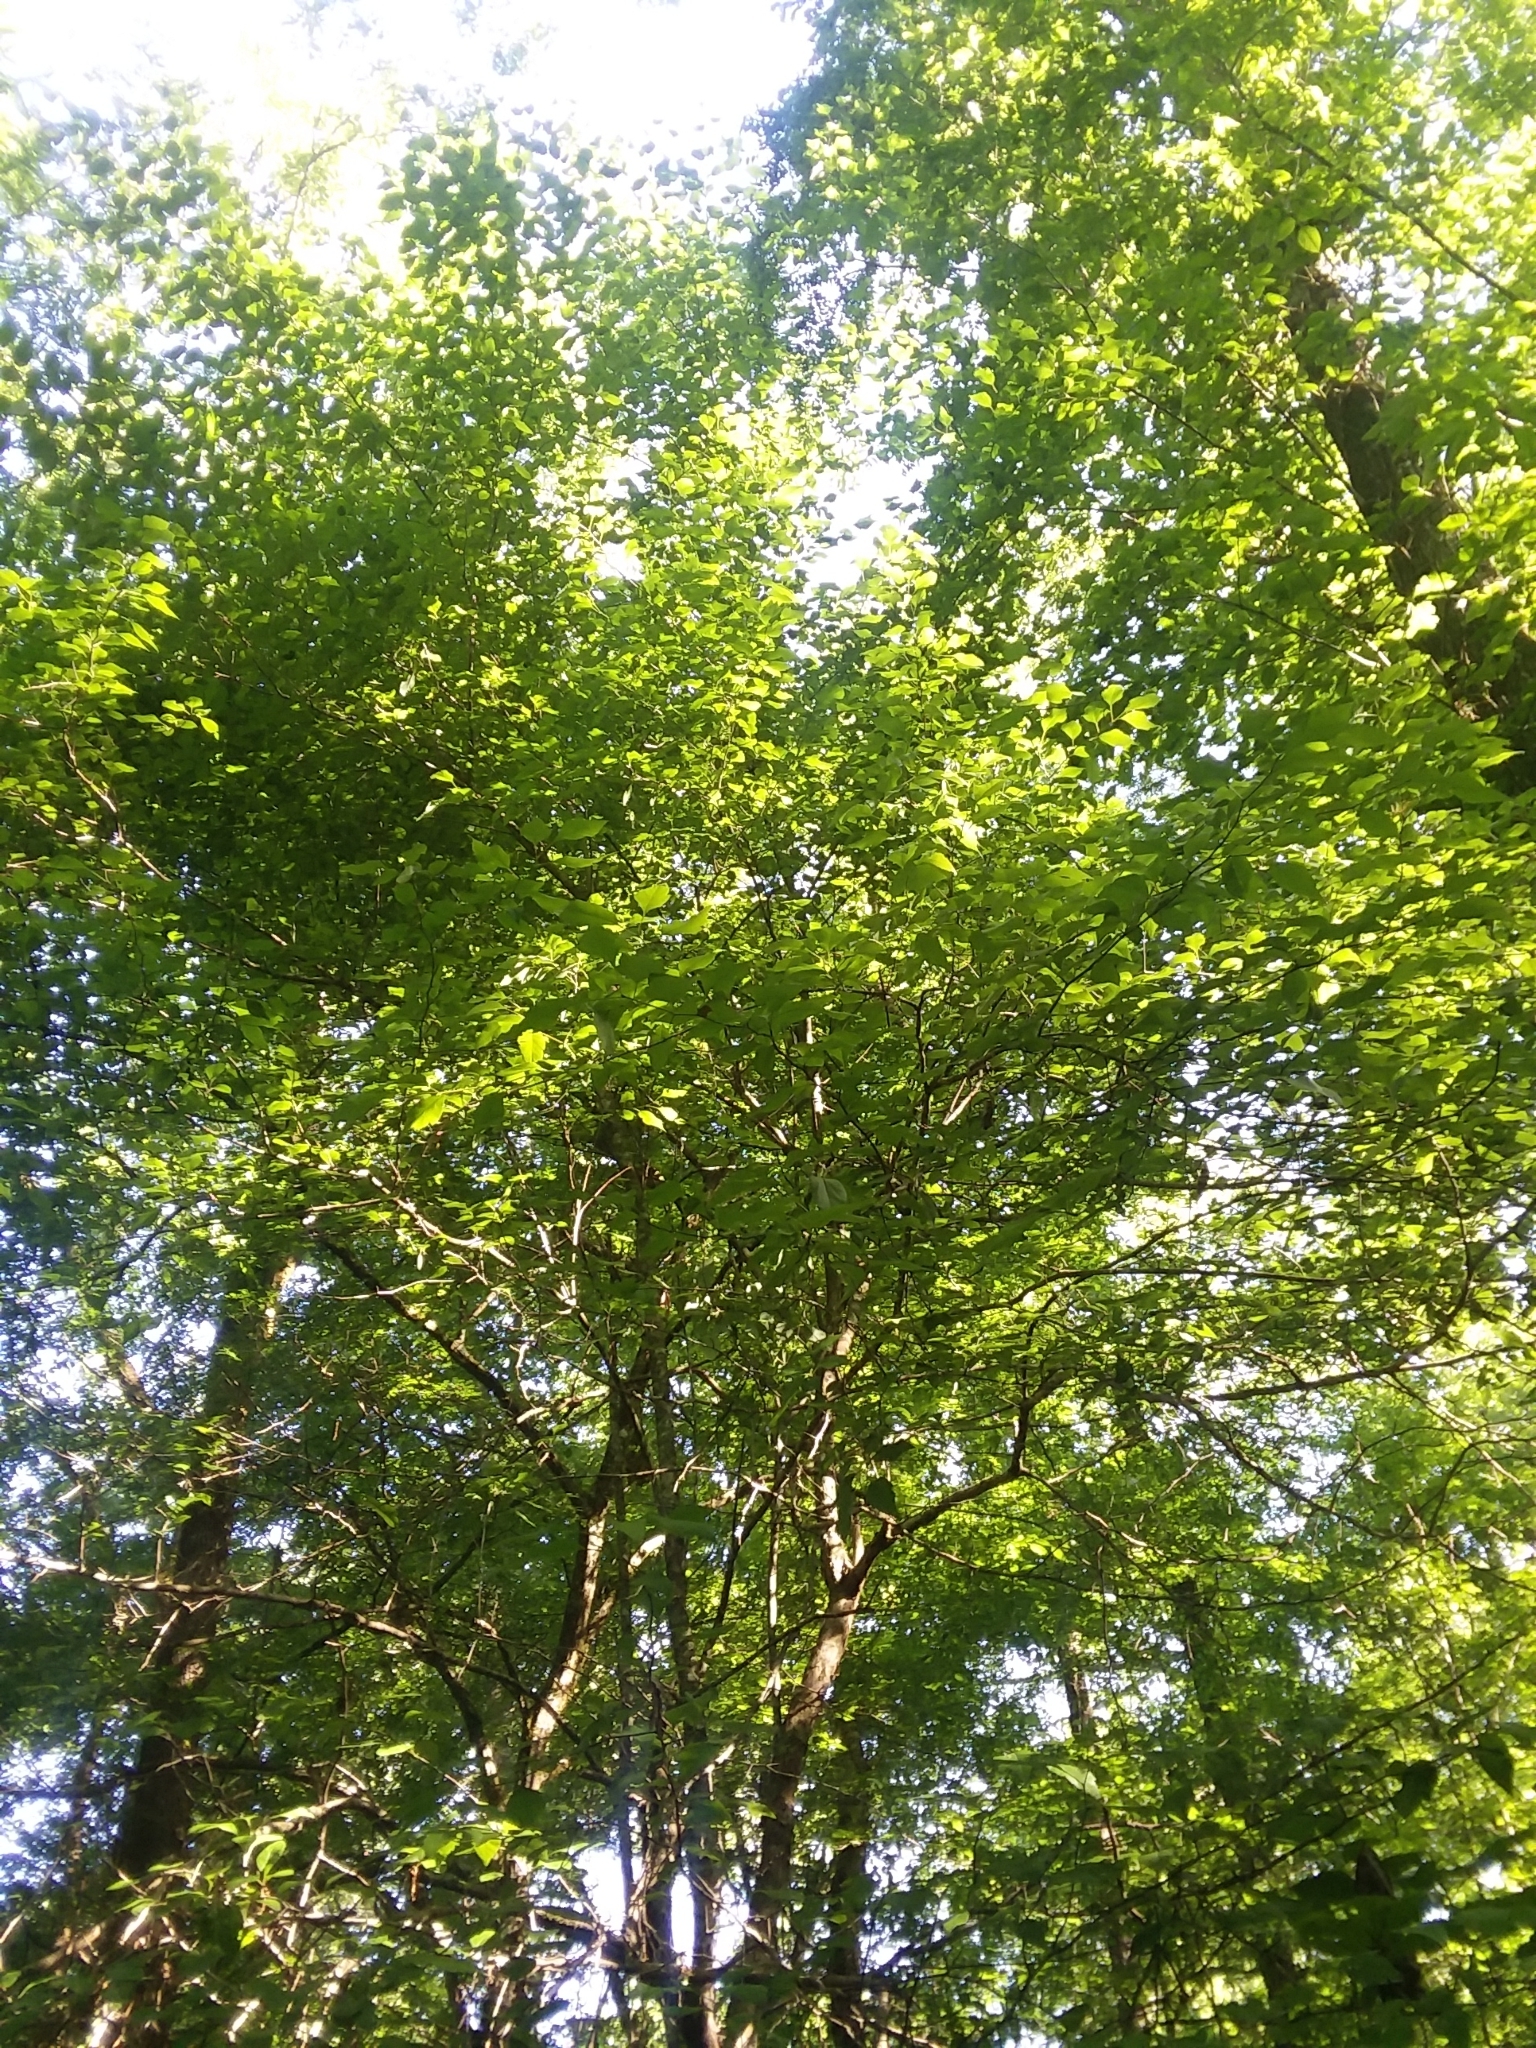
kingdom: Plantae
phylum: Tracheophyta
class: Magnoliopsida
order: Rosales
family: Rosaceae
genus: Crataegus
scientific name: Crataegus viridis
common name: Southernthorn
